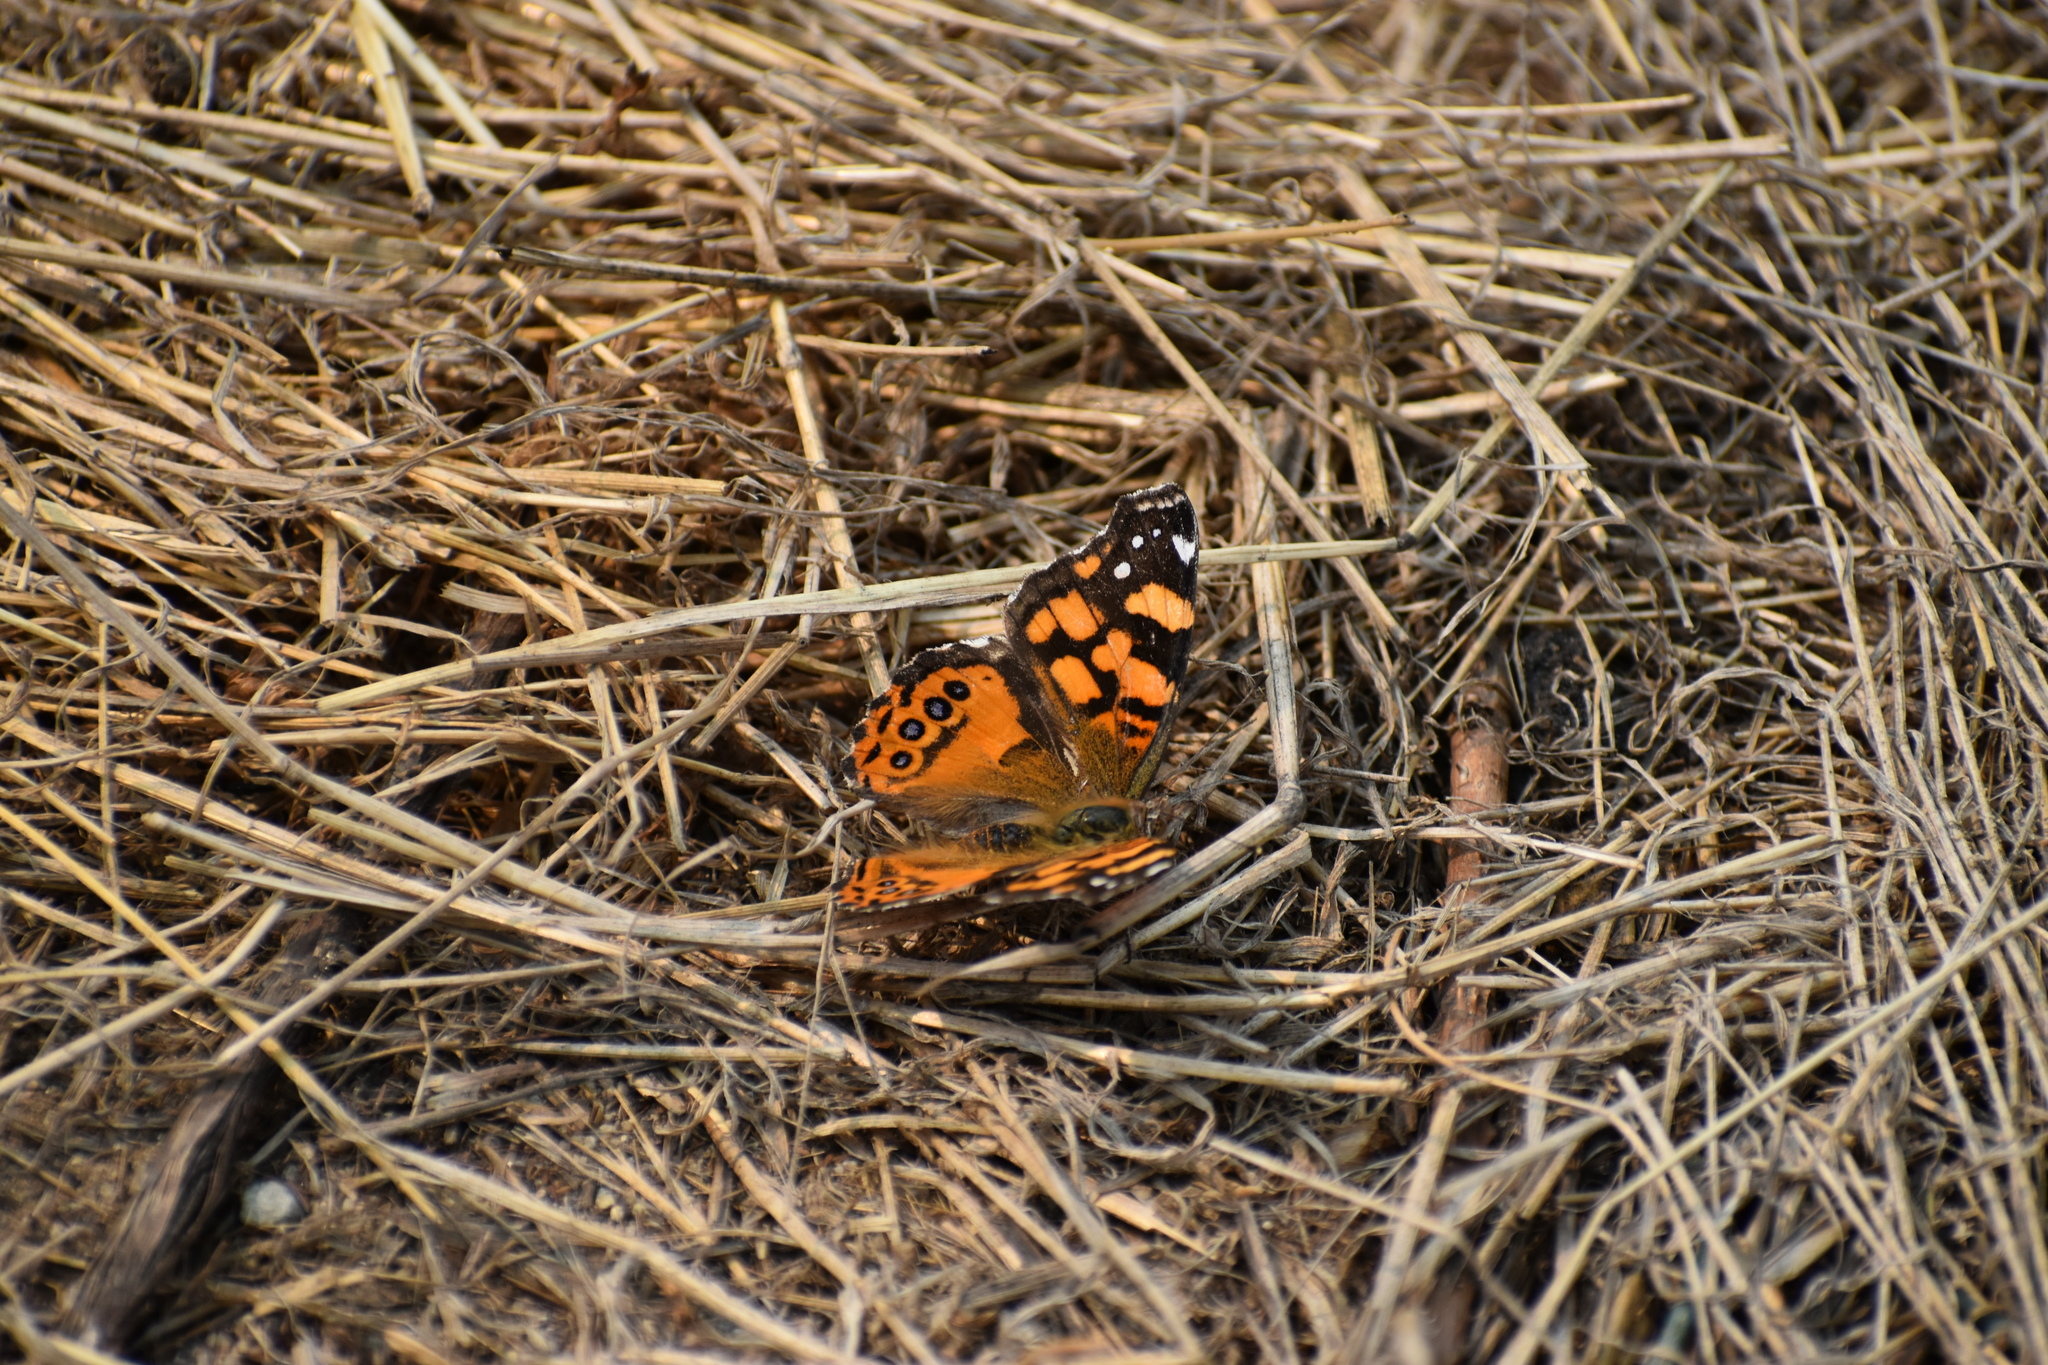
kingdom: Animalia
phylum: Arthropoda
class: Insecta
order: Lepidoptera
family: Nymphalidae
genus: Vanessa
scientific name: Vanessa annabella
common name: West coast lady
